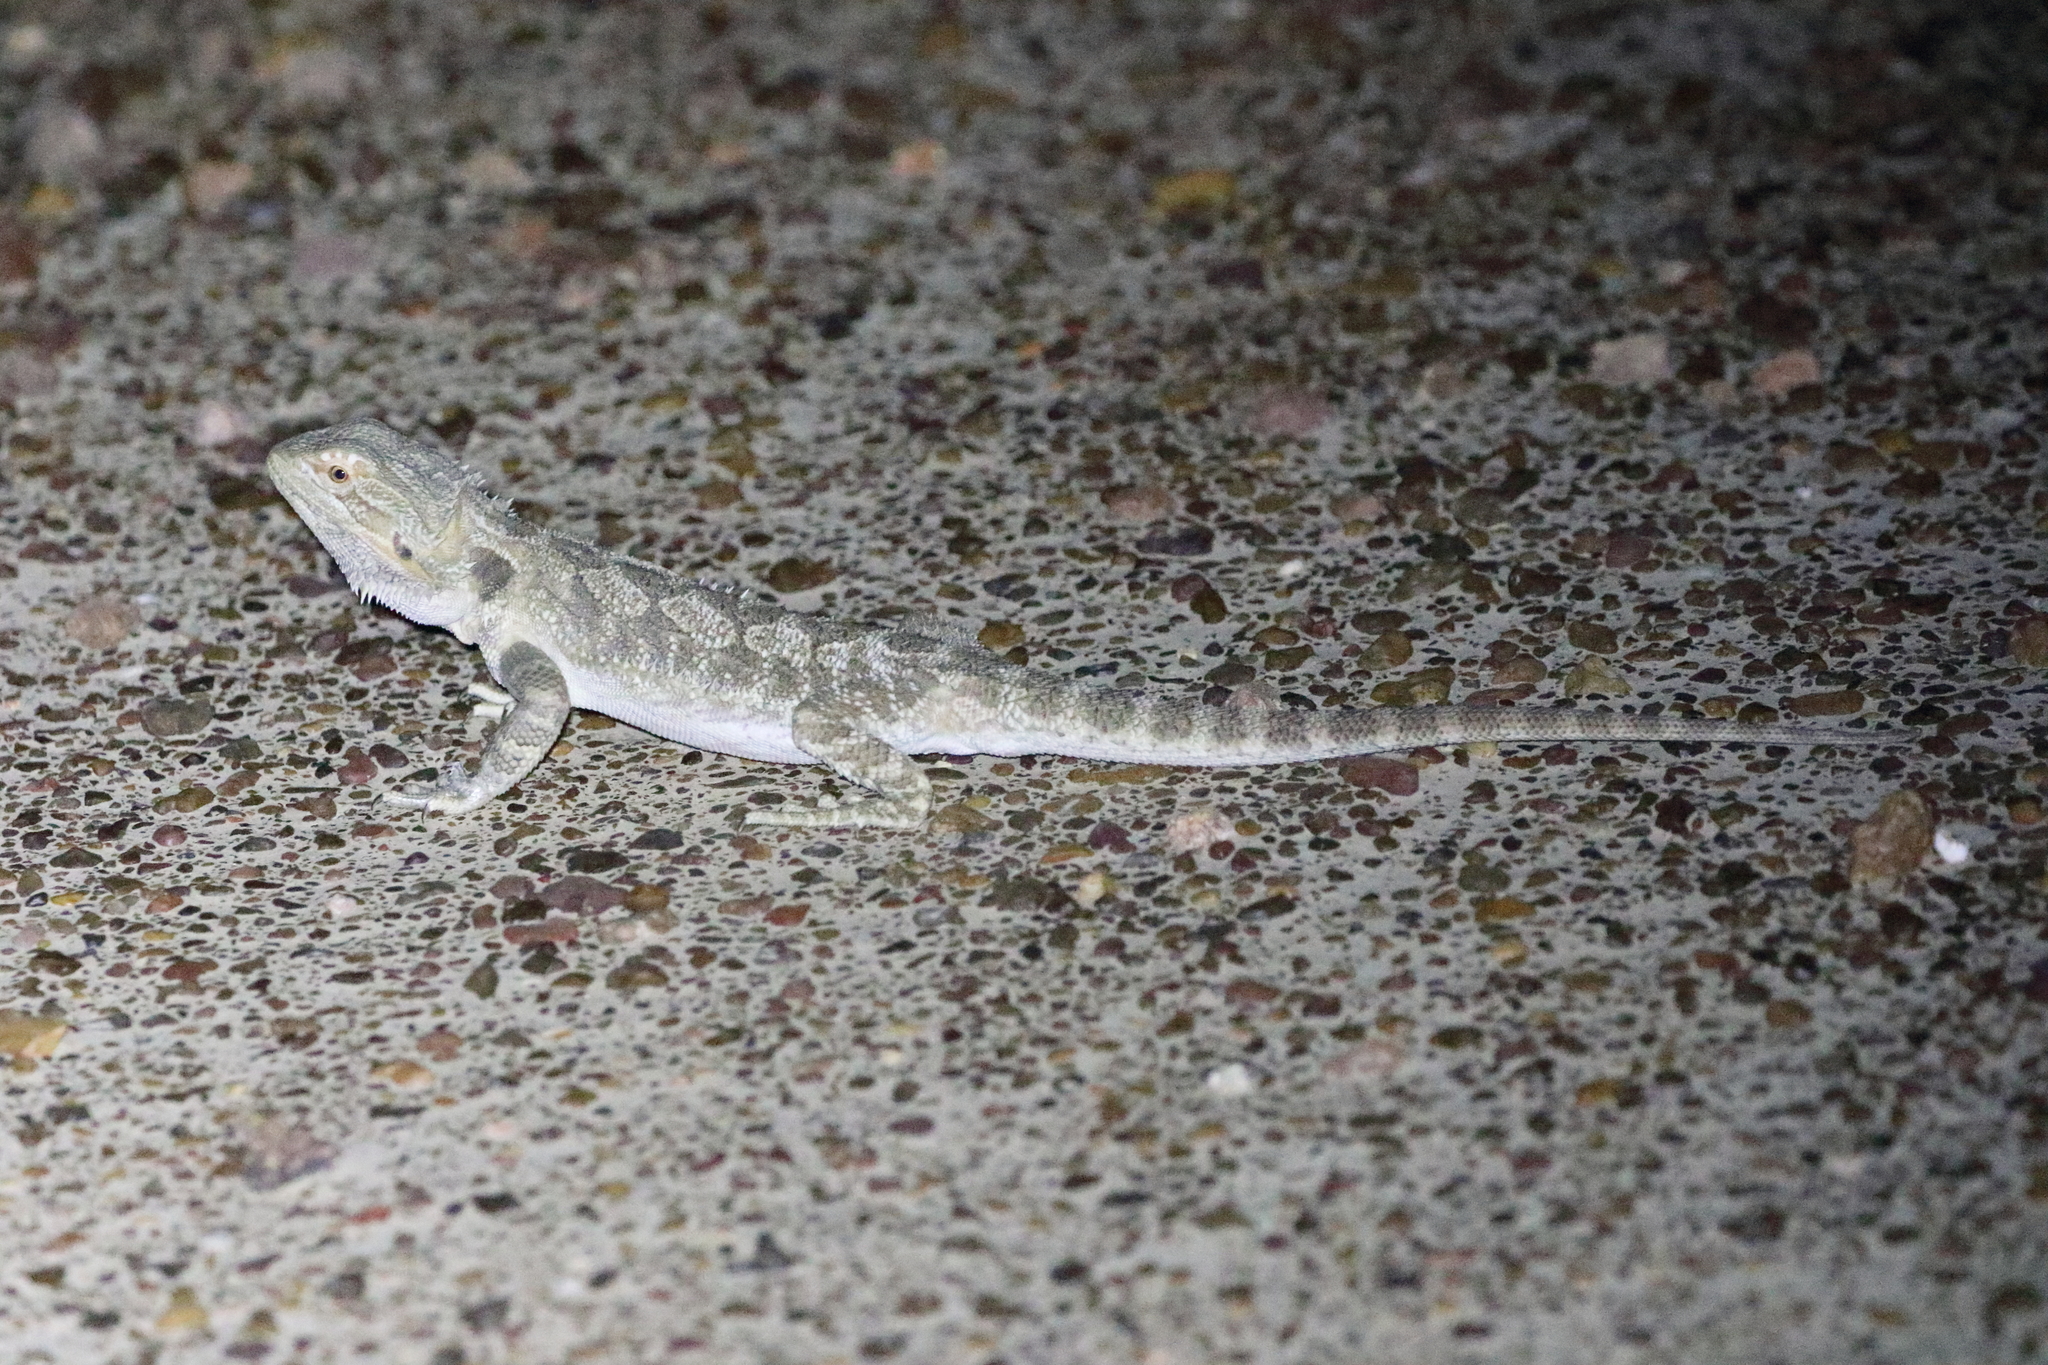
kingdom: Animalia
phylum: Chordata
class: Squamata
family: Agamidae
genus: Pogona
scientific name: Pogona vitticeps
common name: Central bearded dragon
